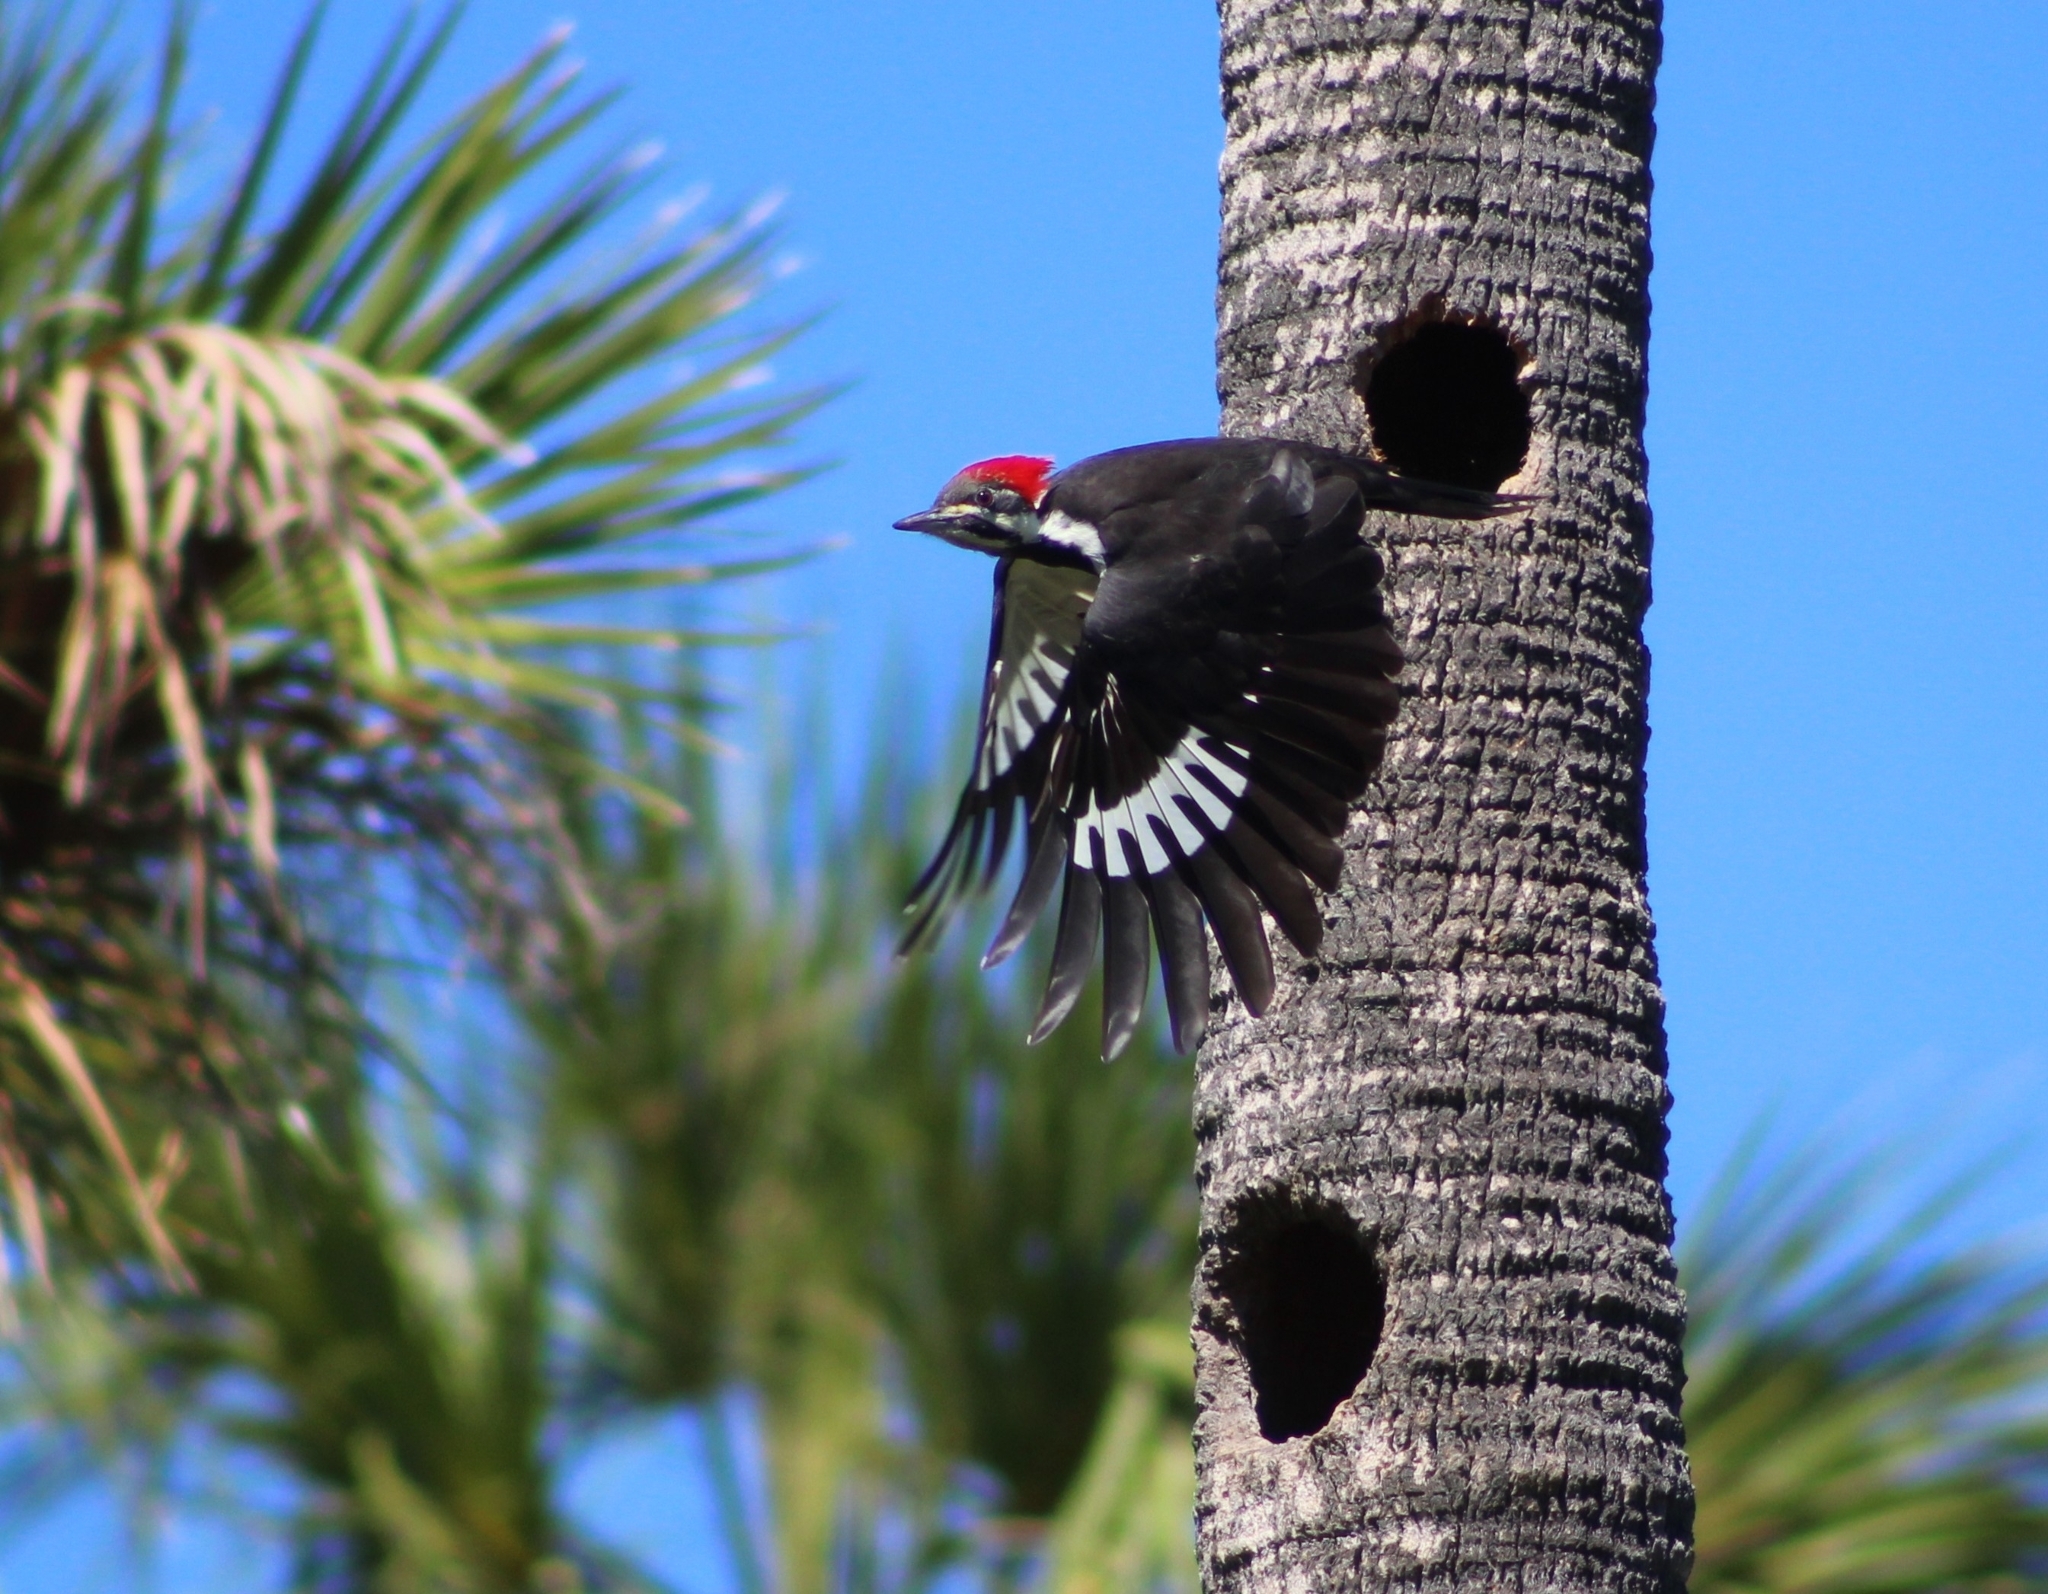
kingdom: Animalia
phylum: Chordata
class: Aves
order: Piciformes
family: Picidae
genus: Dryocopus
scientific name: Dryocopus pileatus
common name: Pileated woodpecker
